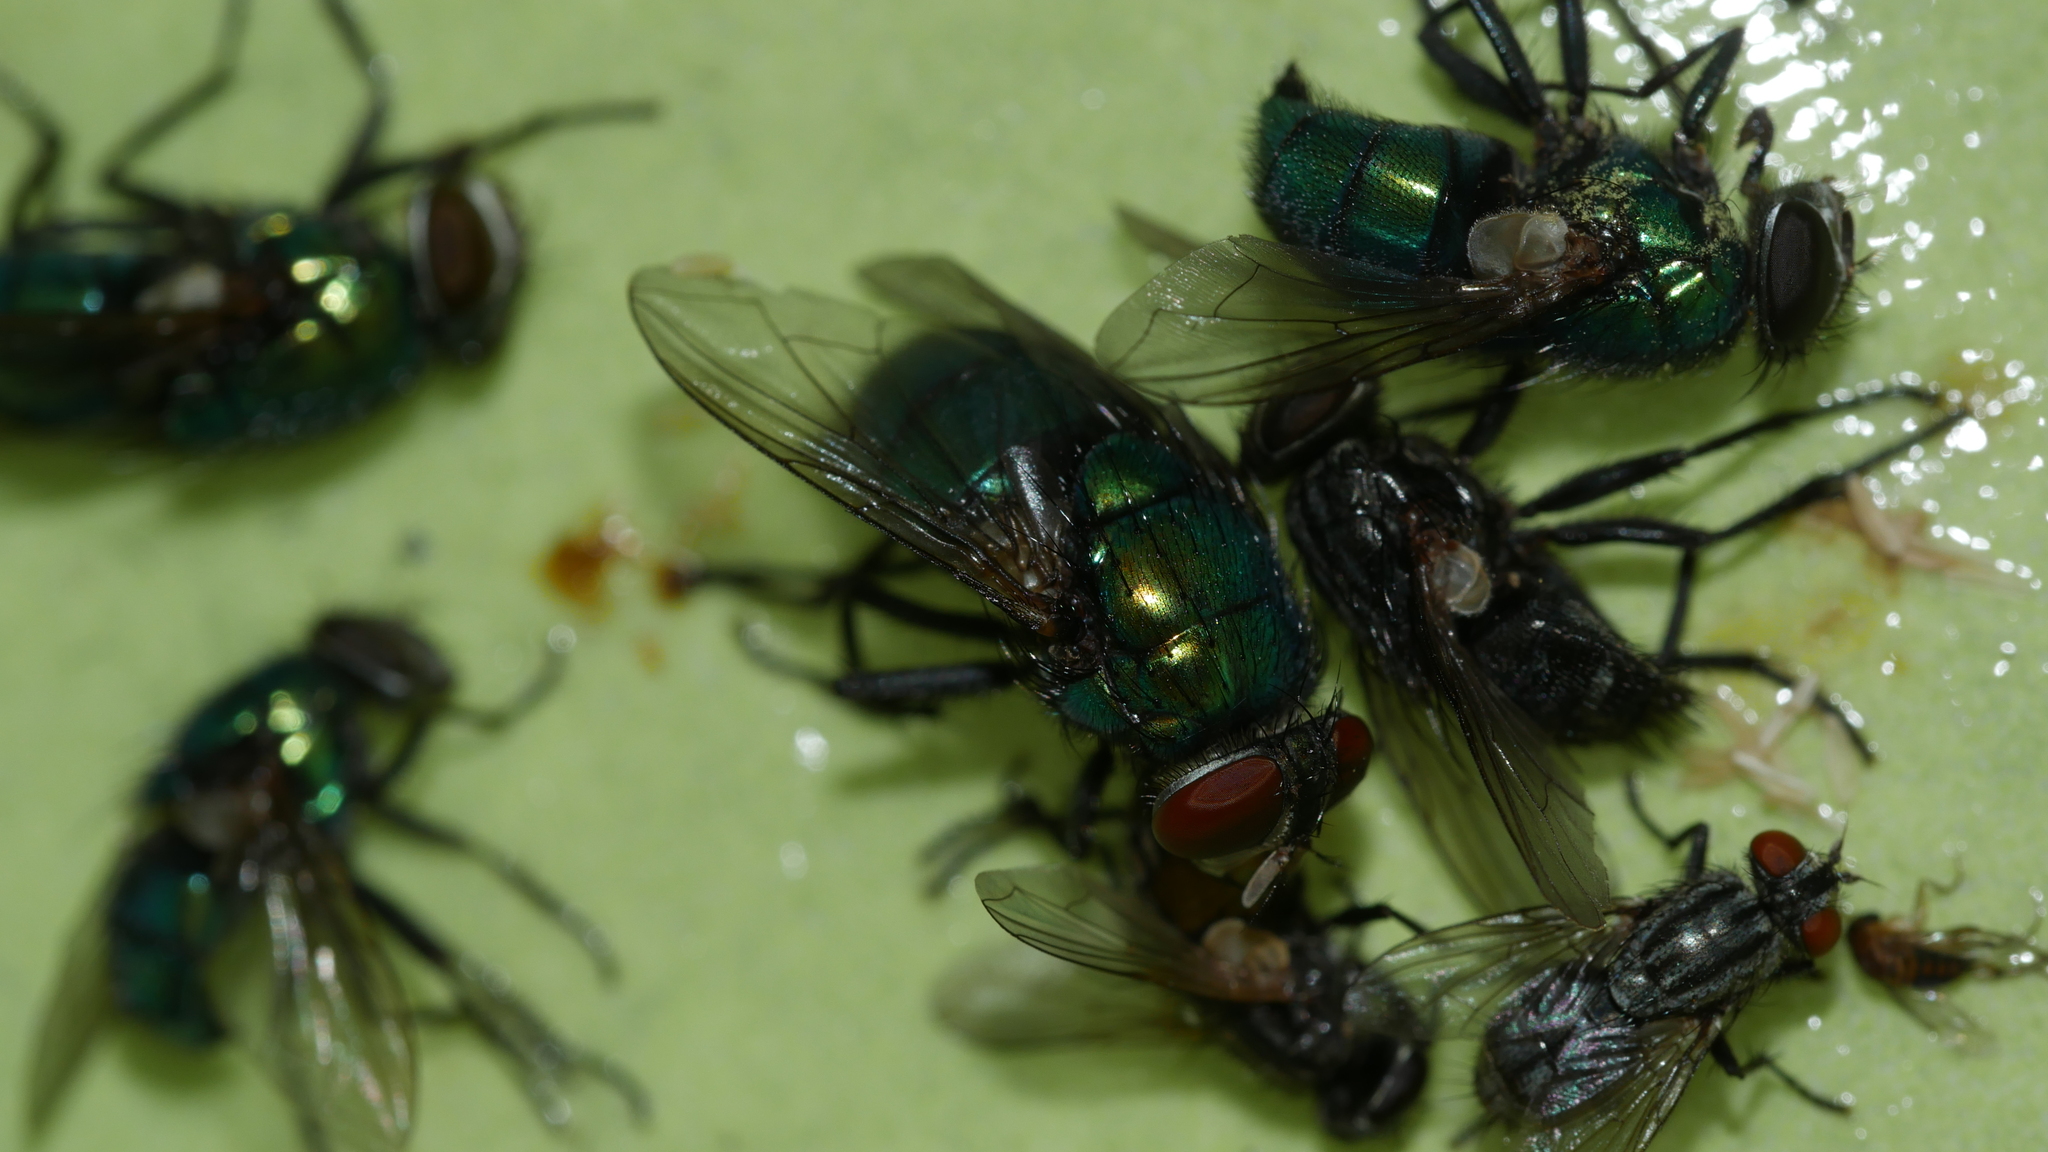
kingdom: Animalia
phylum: Arthropoda
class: Insecta
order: Diptera
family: Calliphoridae
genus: Lucilia
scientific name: Lucilia caeruleiviridis
